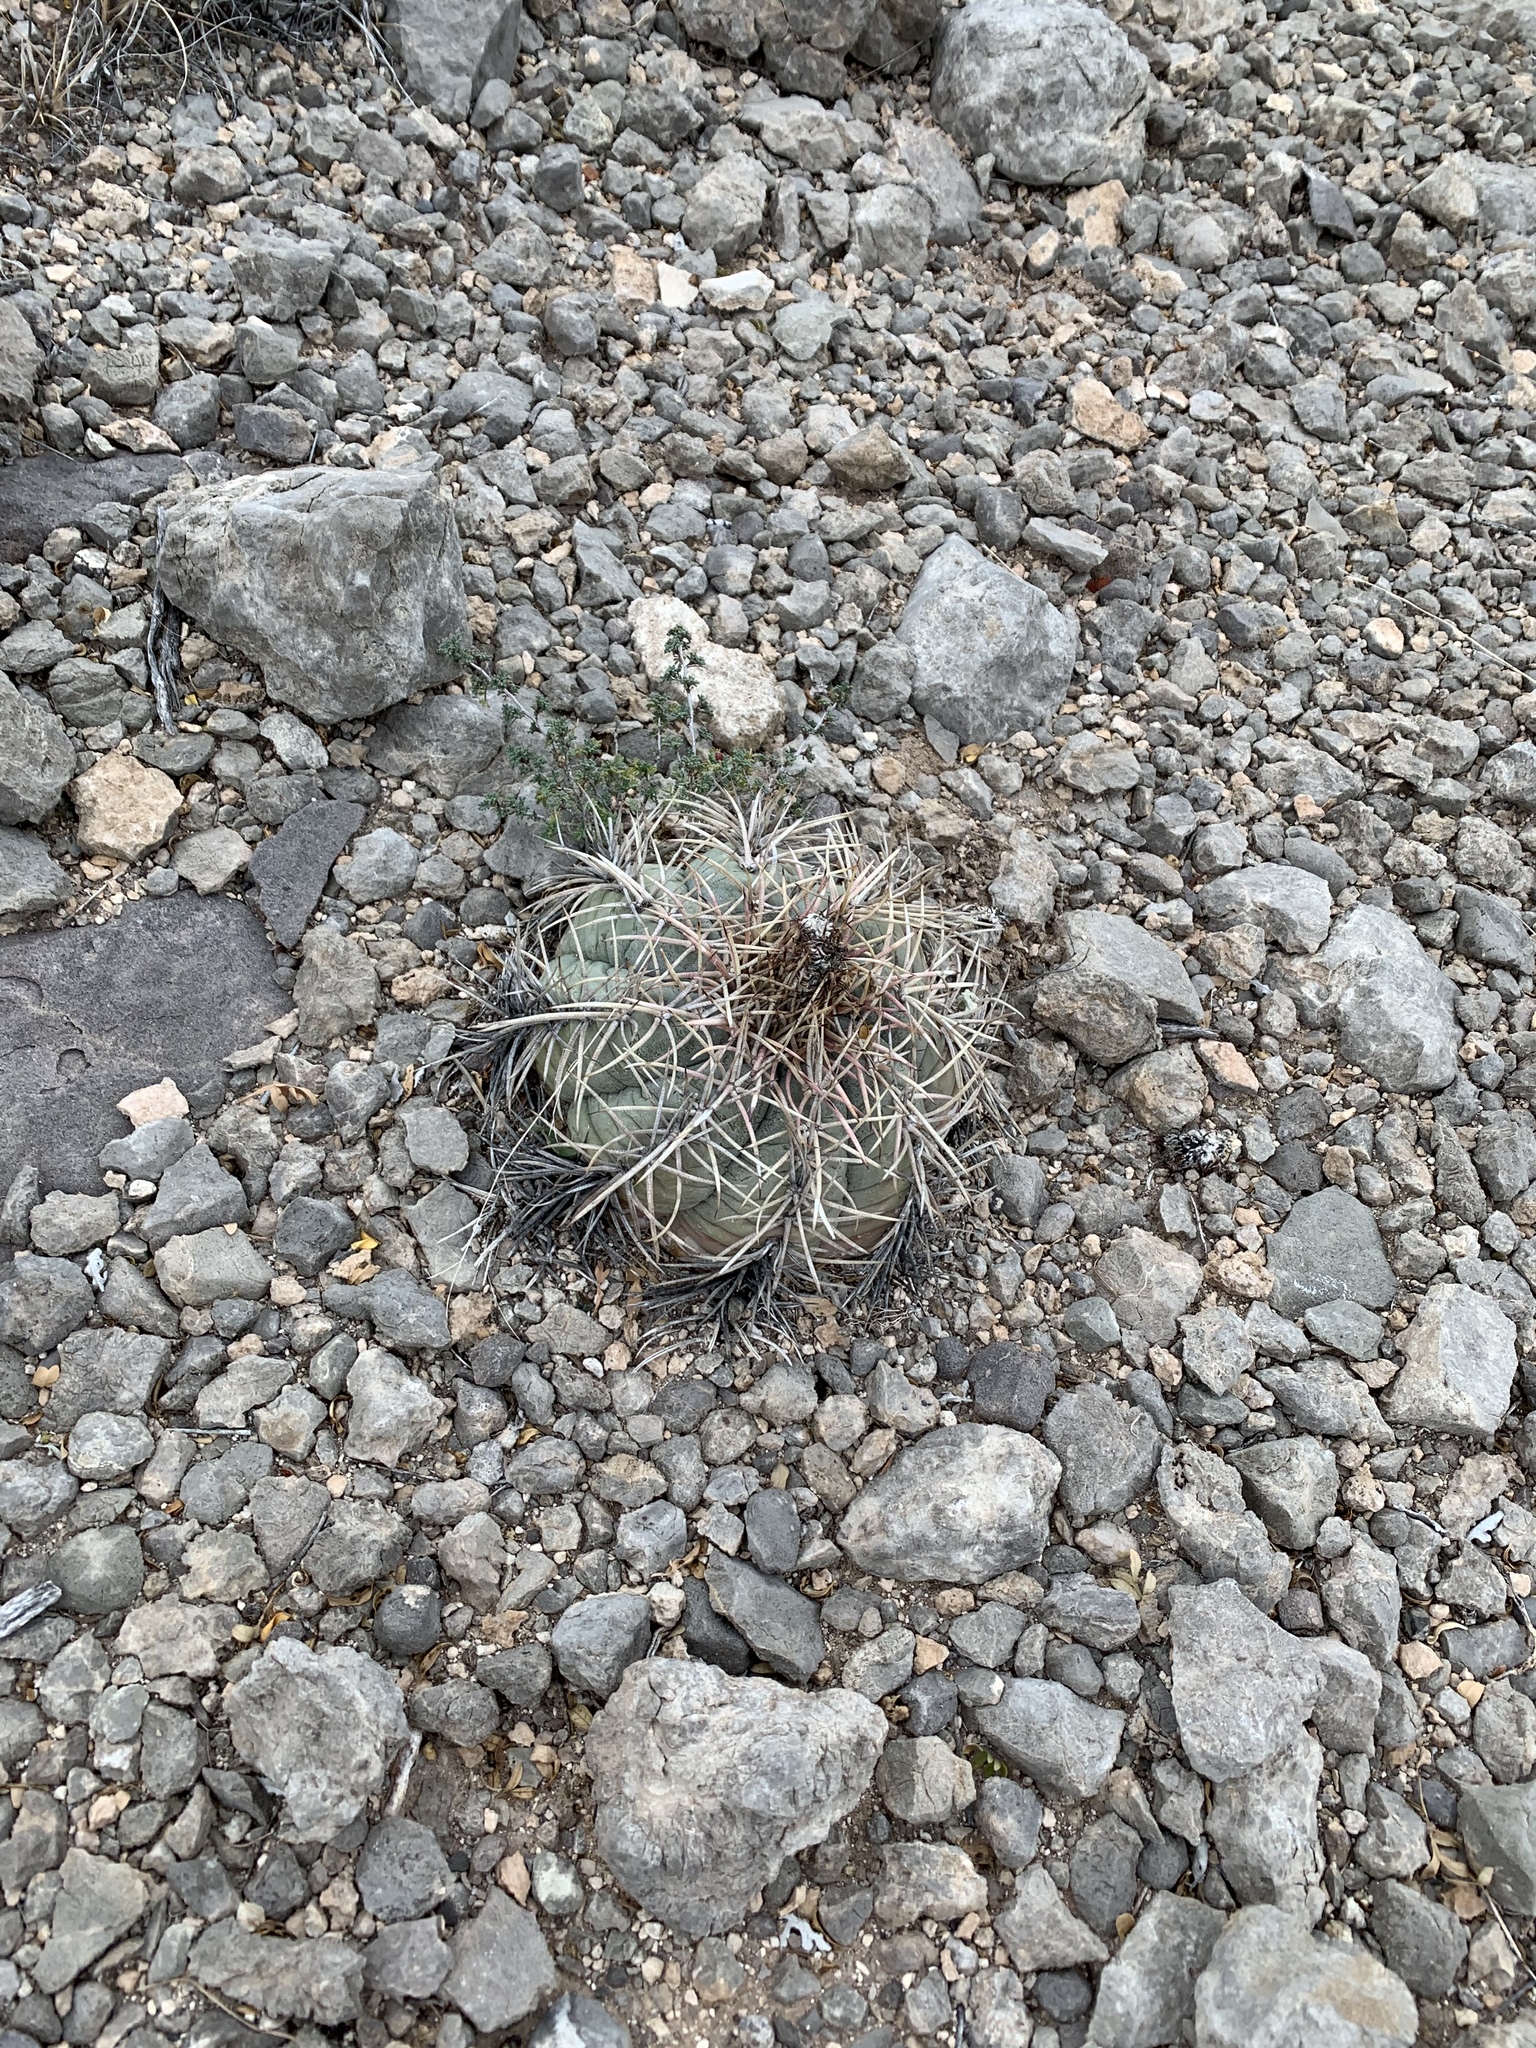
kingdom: Plantae
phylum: Tracheophyta
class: Magnoliopsida
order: Caryophyllales
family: Cactaceae
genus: Echinocactus
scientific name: Echinocactus horizonthalonius
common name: Devilshead
